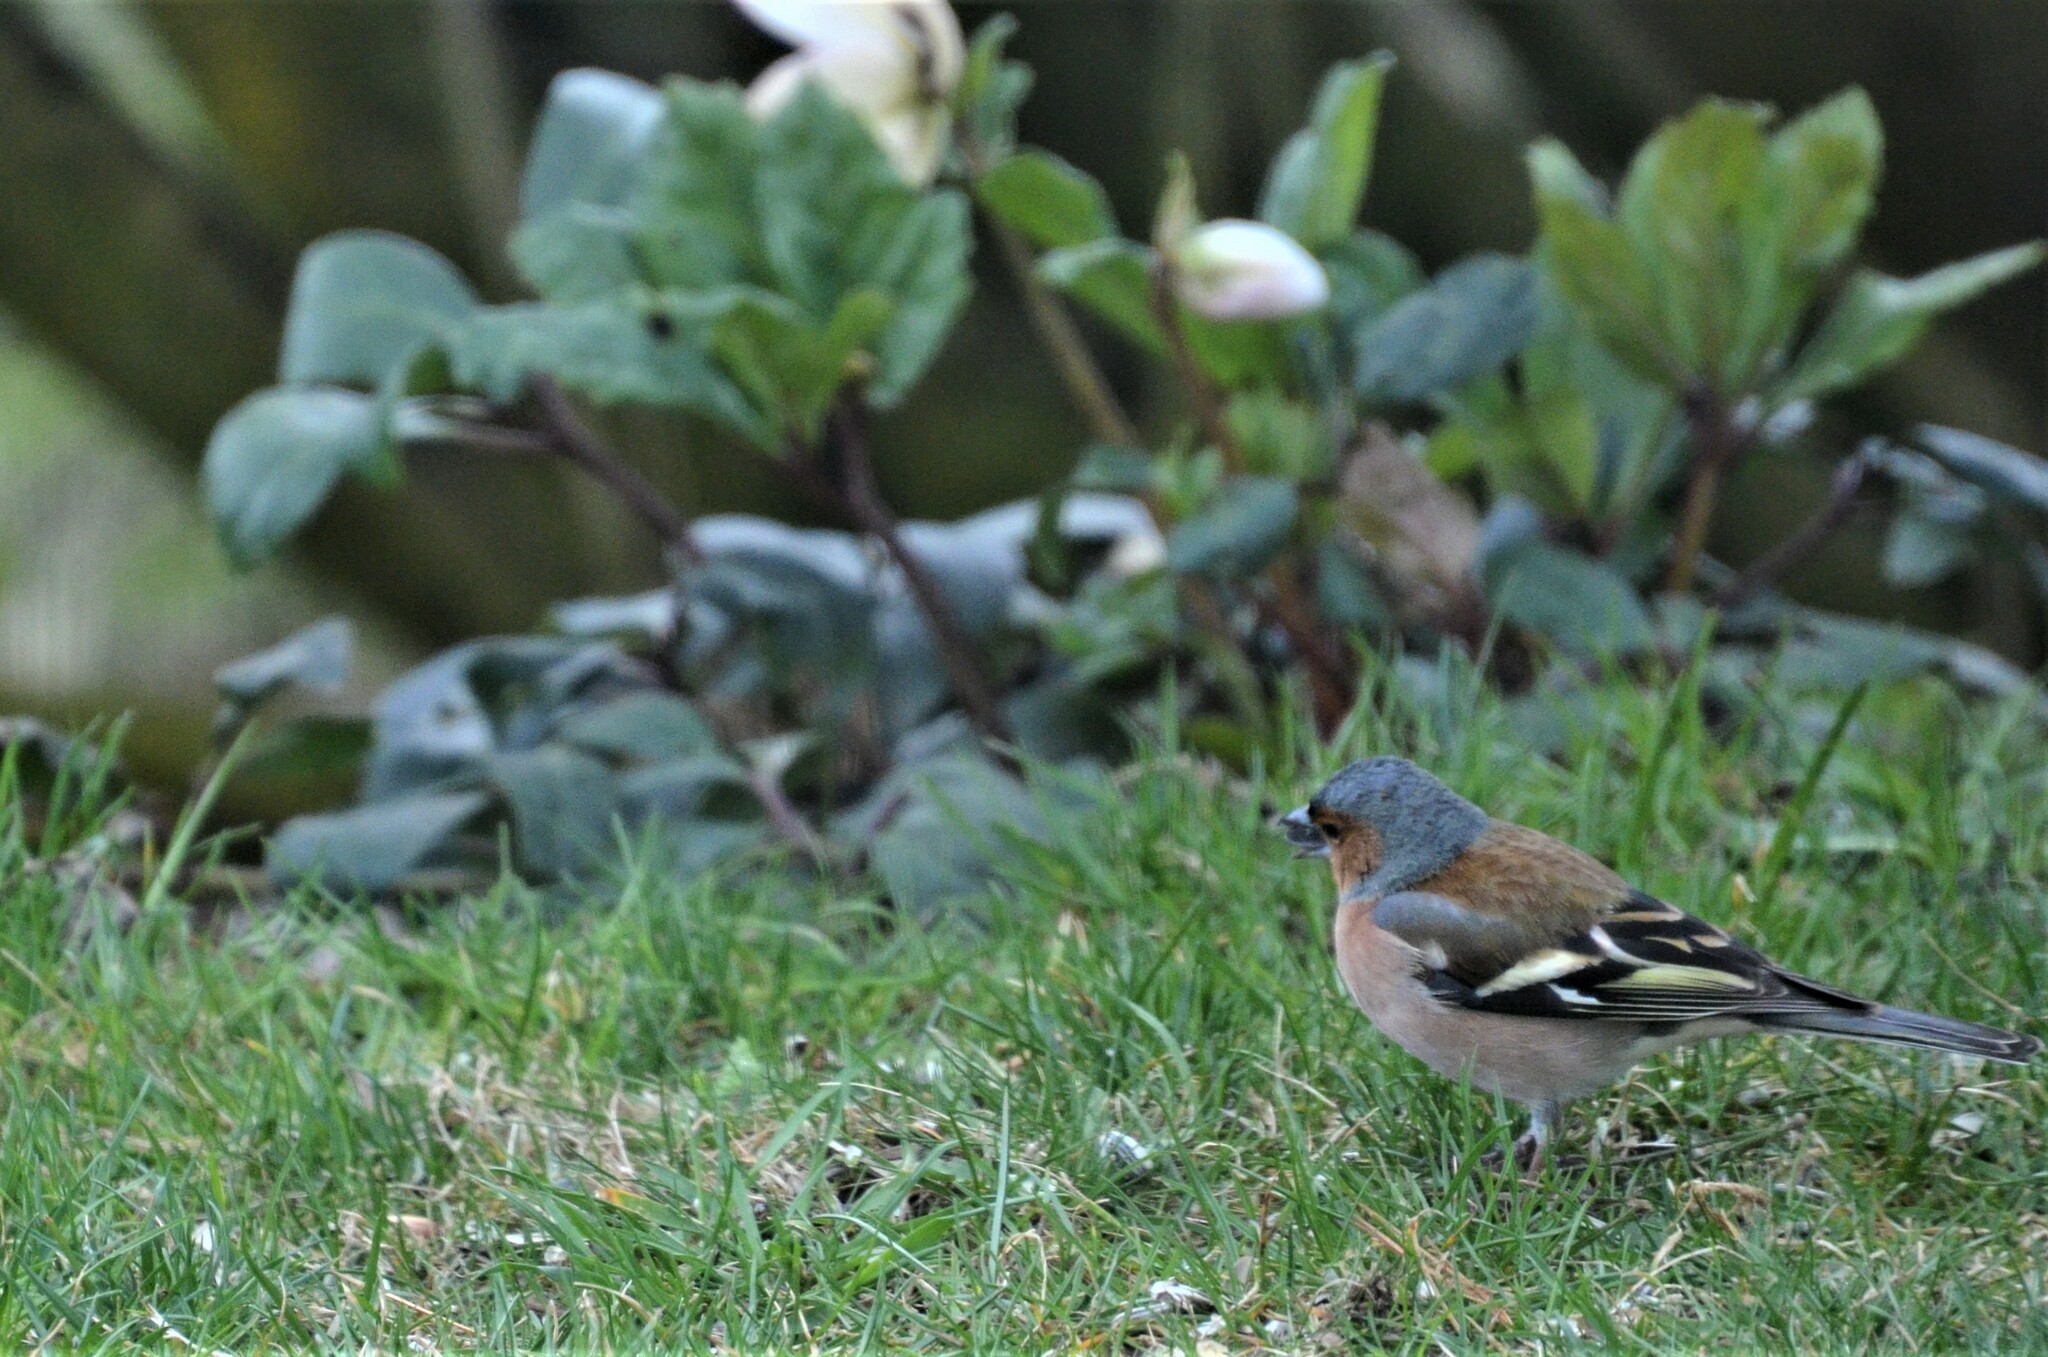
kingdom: Animalia
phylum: Chordata
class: Aves
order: Passeriformes
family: Fringillidae
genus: Fringilla
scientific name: Fringilla coelebs
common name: Common chaffinch
